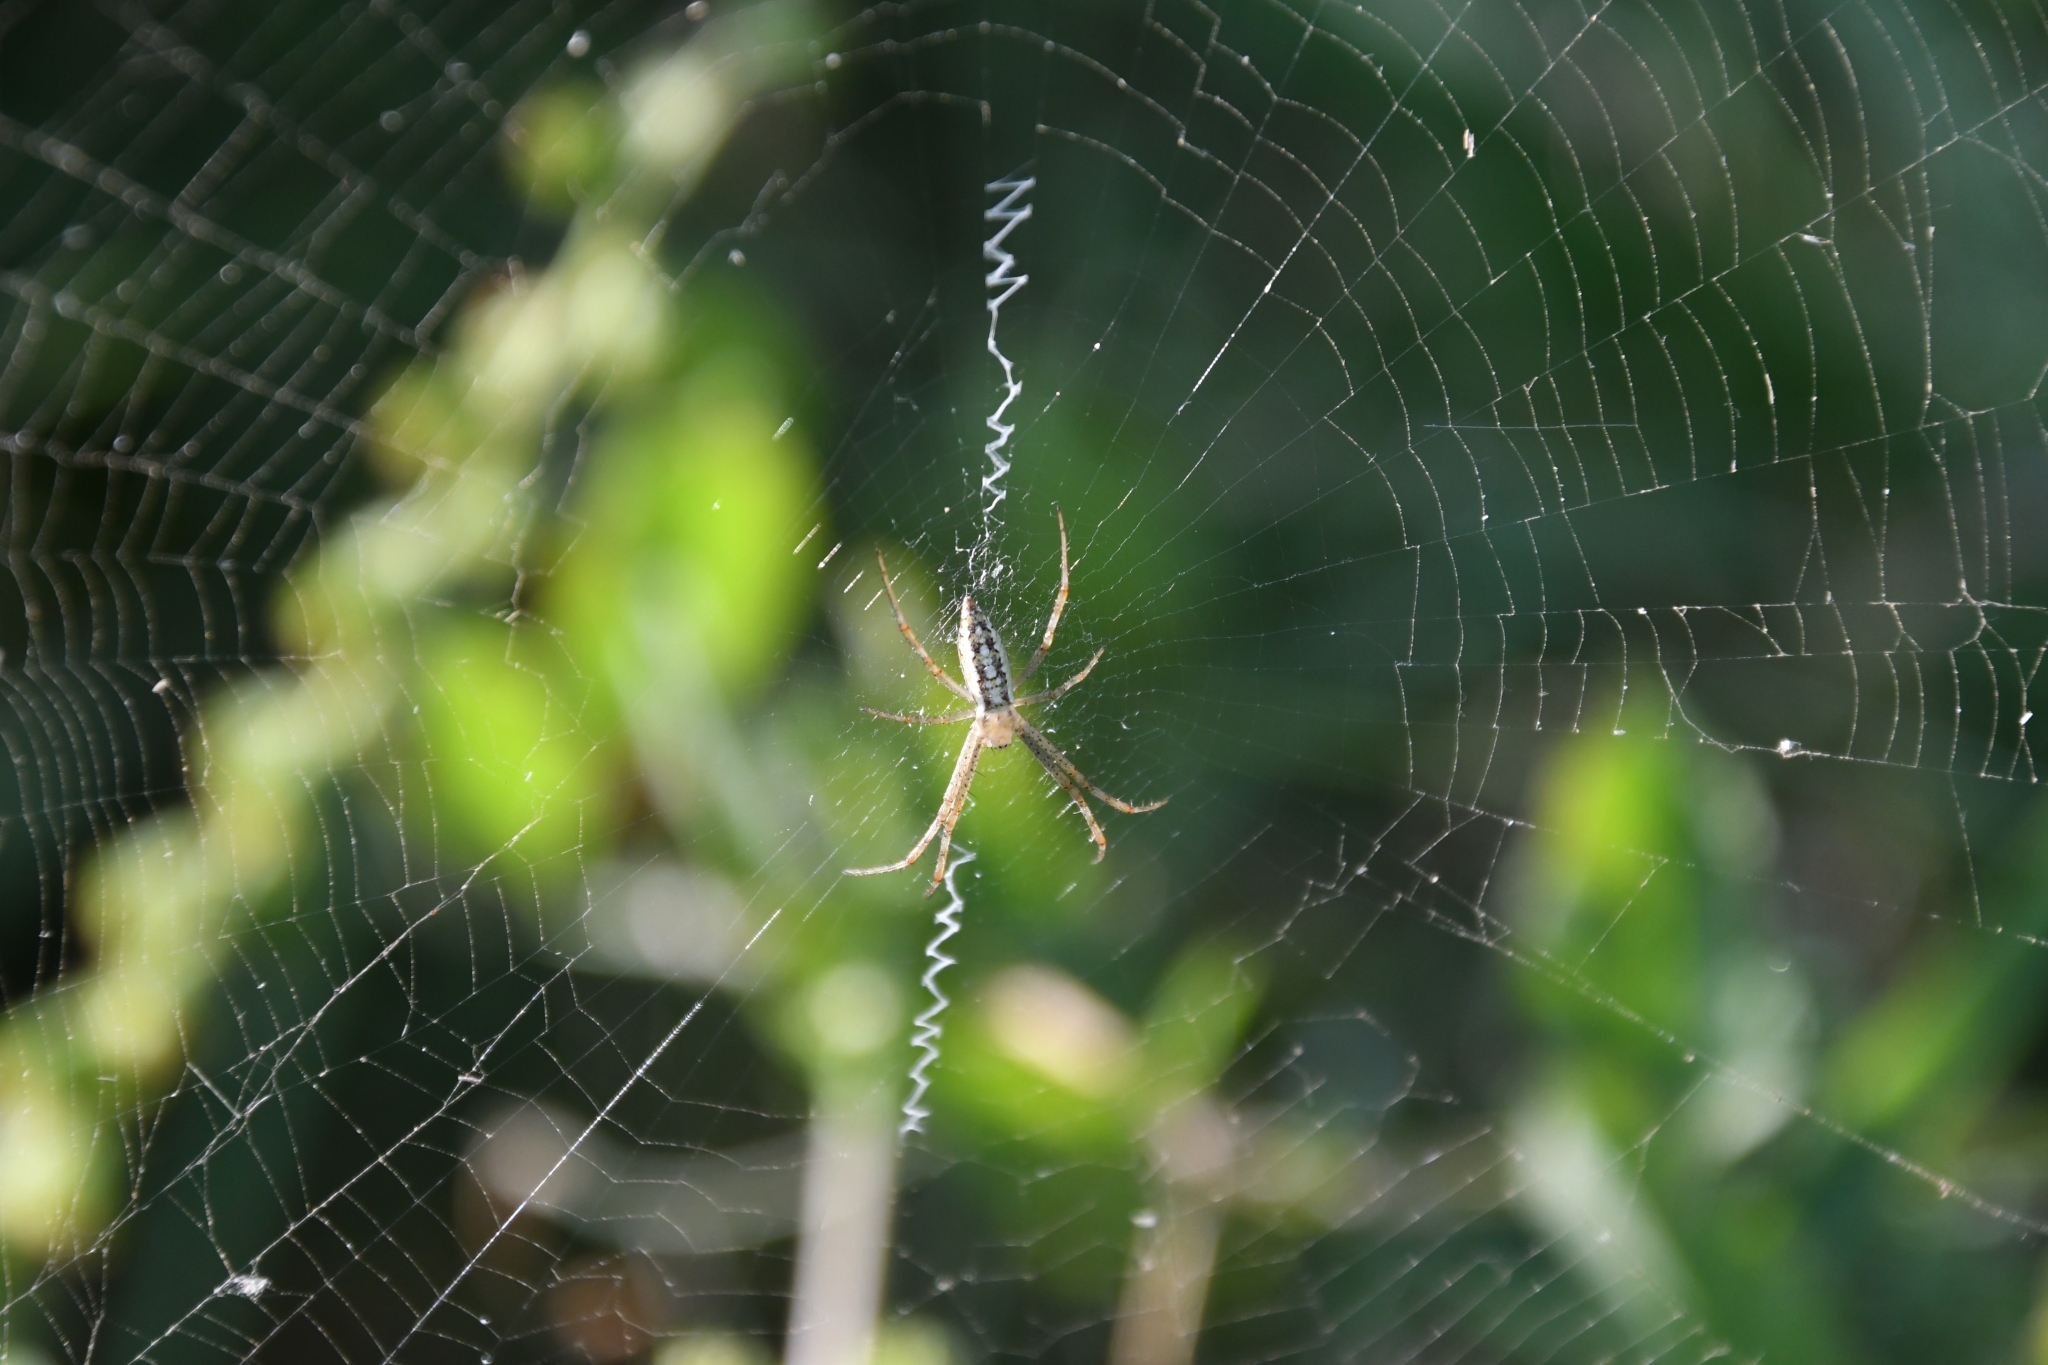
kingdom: Animalia
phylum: Arthropoda
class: Arachnida
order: Araneae
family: Araneidae
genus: Argiope
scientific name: Argiope bruennichi
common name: Wasp spider
